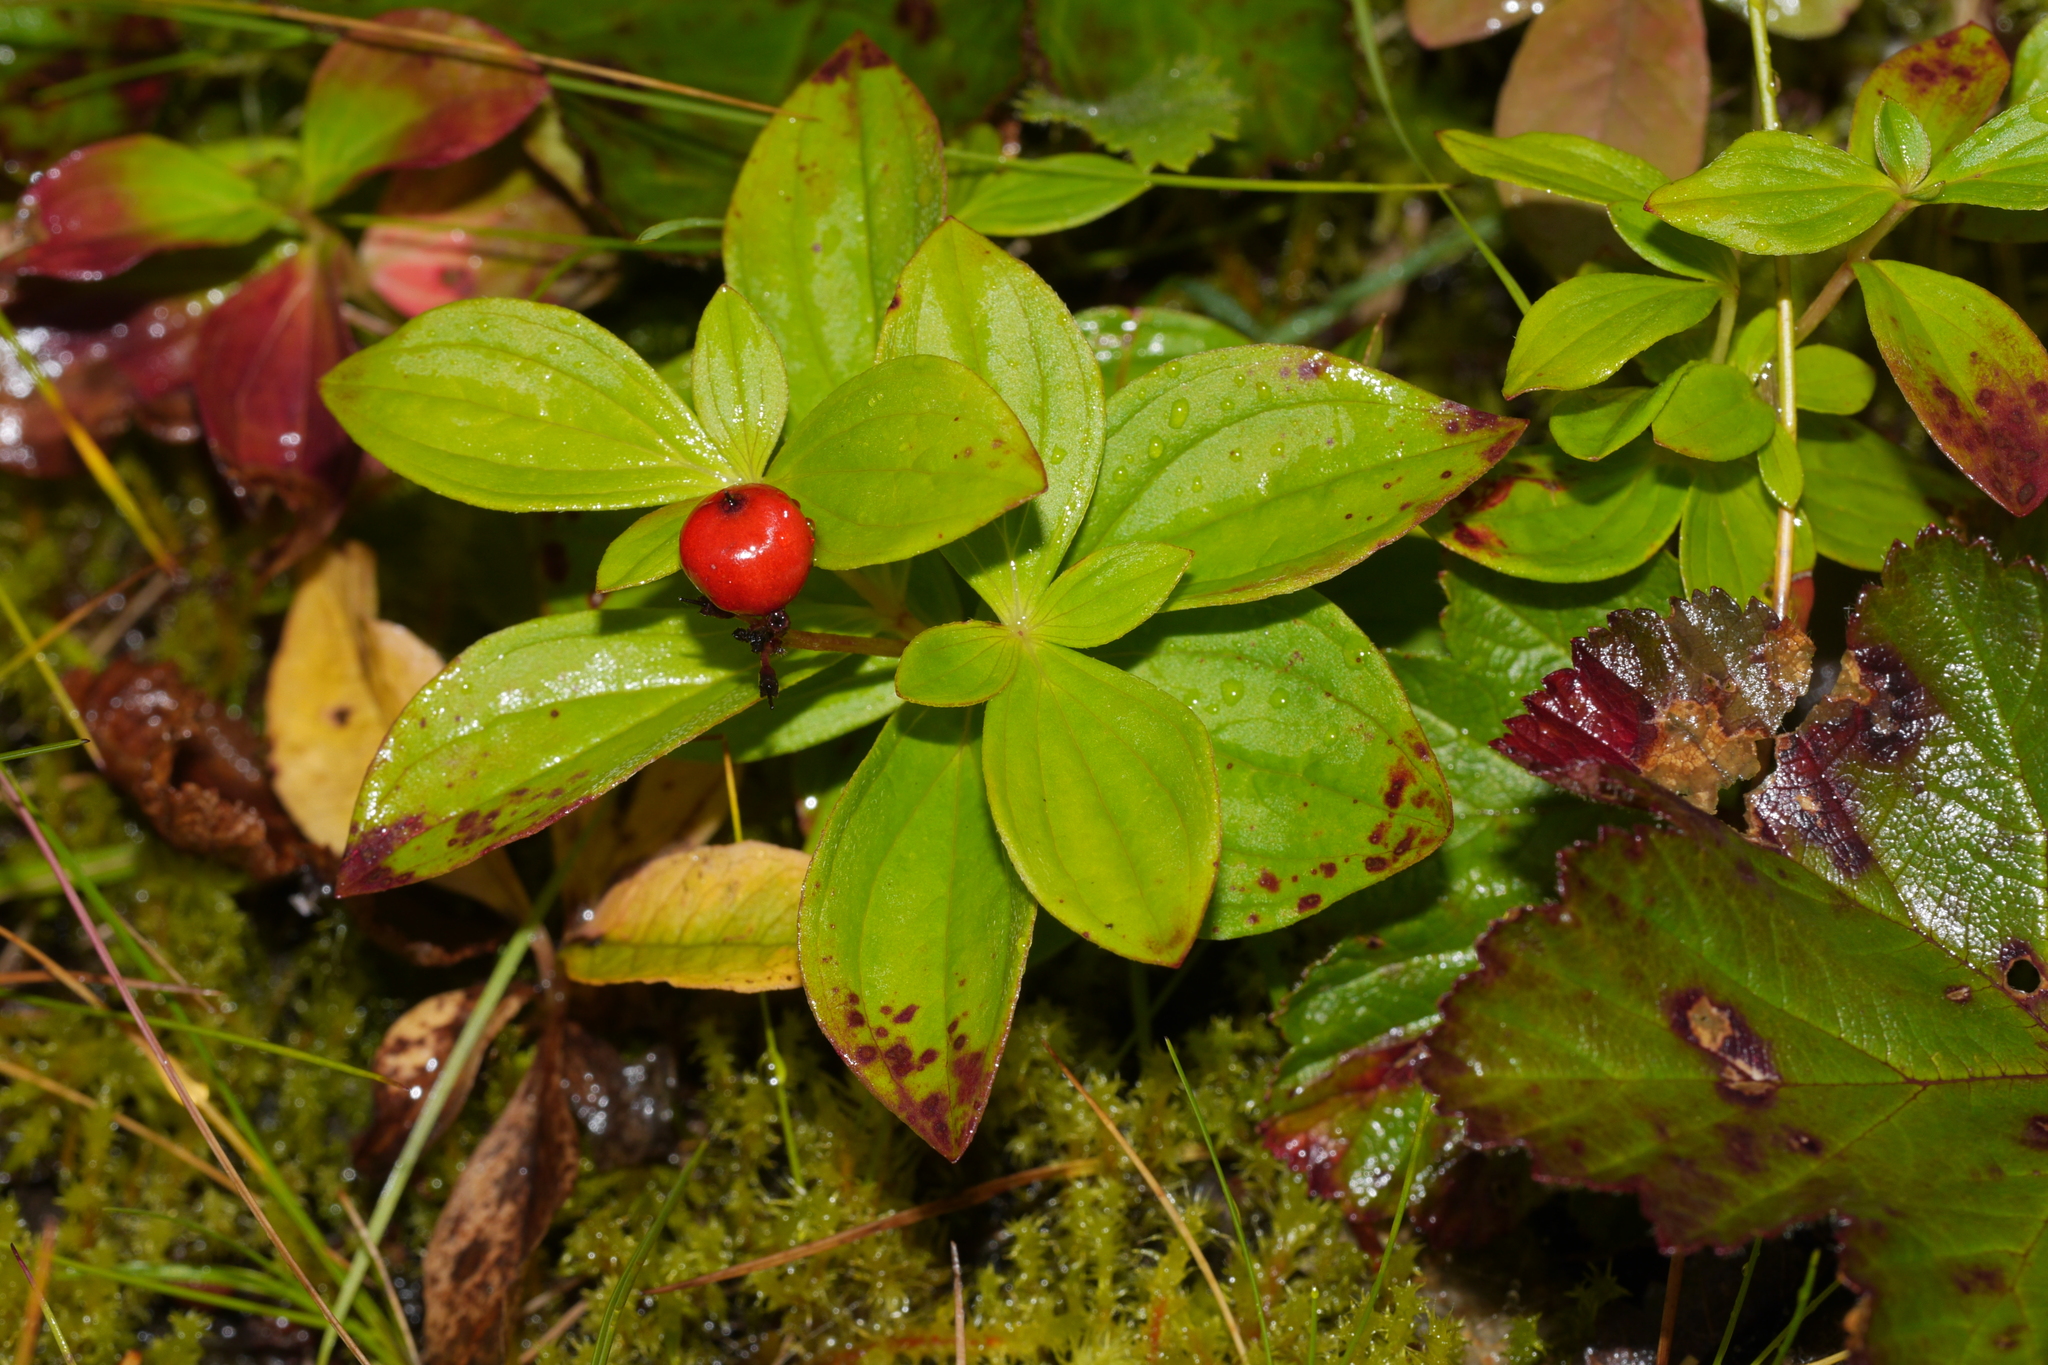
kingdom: Plantae
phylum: Tracheophyta
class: Magnoliopsida
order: Cornales
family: Cornaceae
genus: Cornus
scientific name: Cornus suecica
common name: Dwarf cornel
